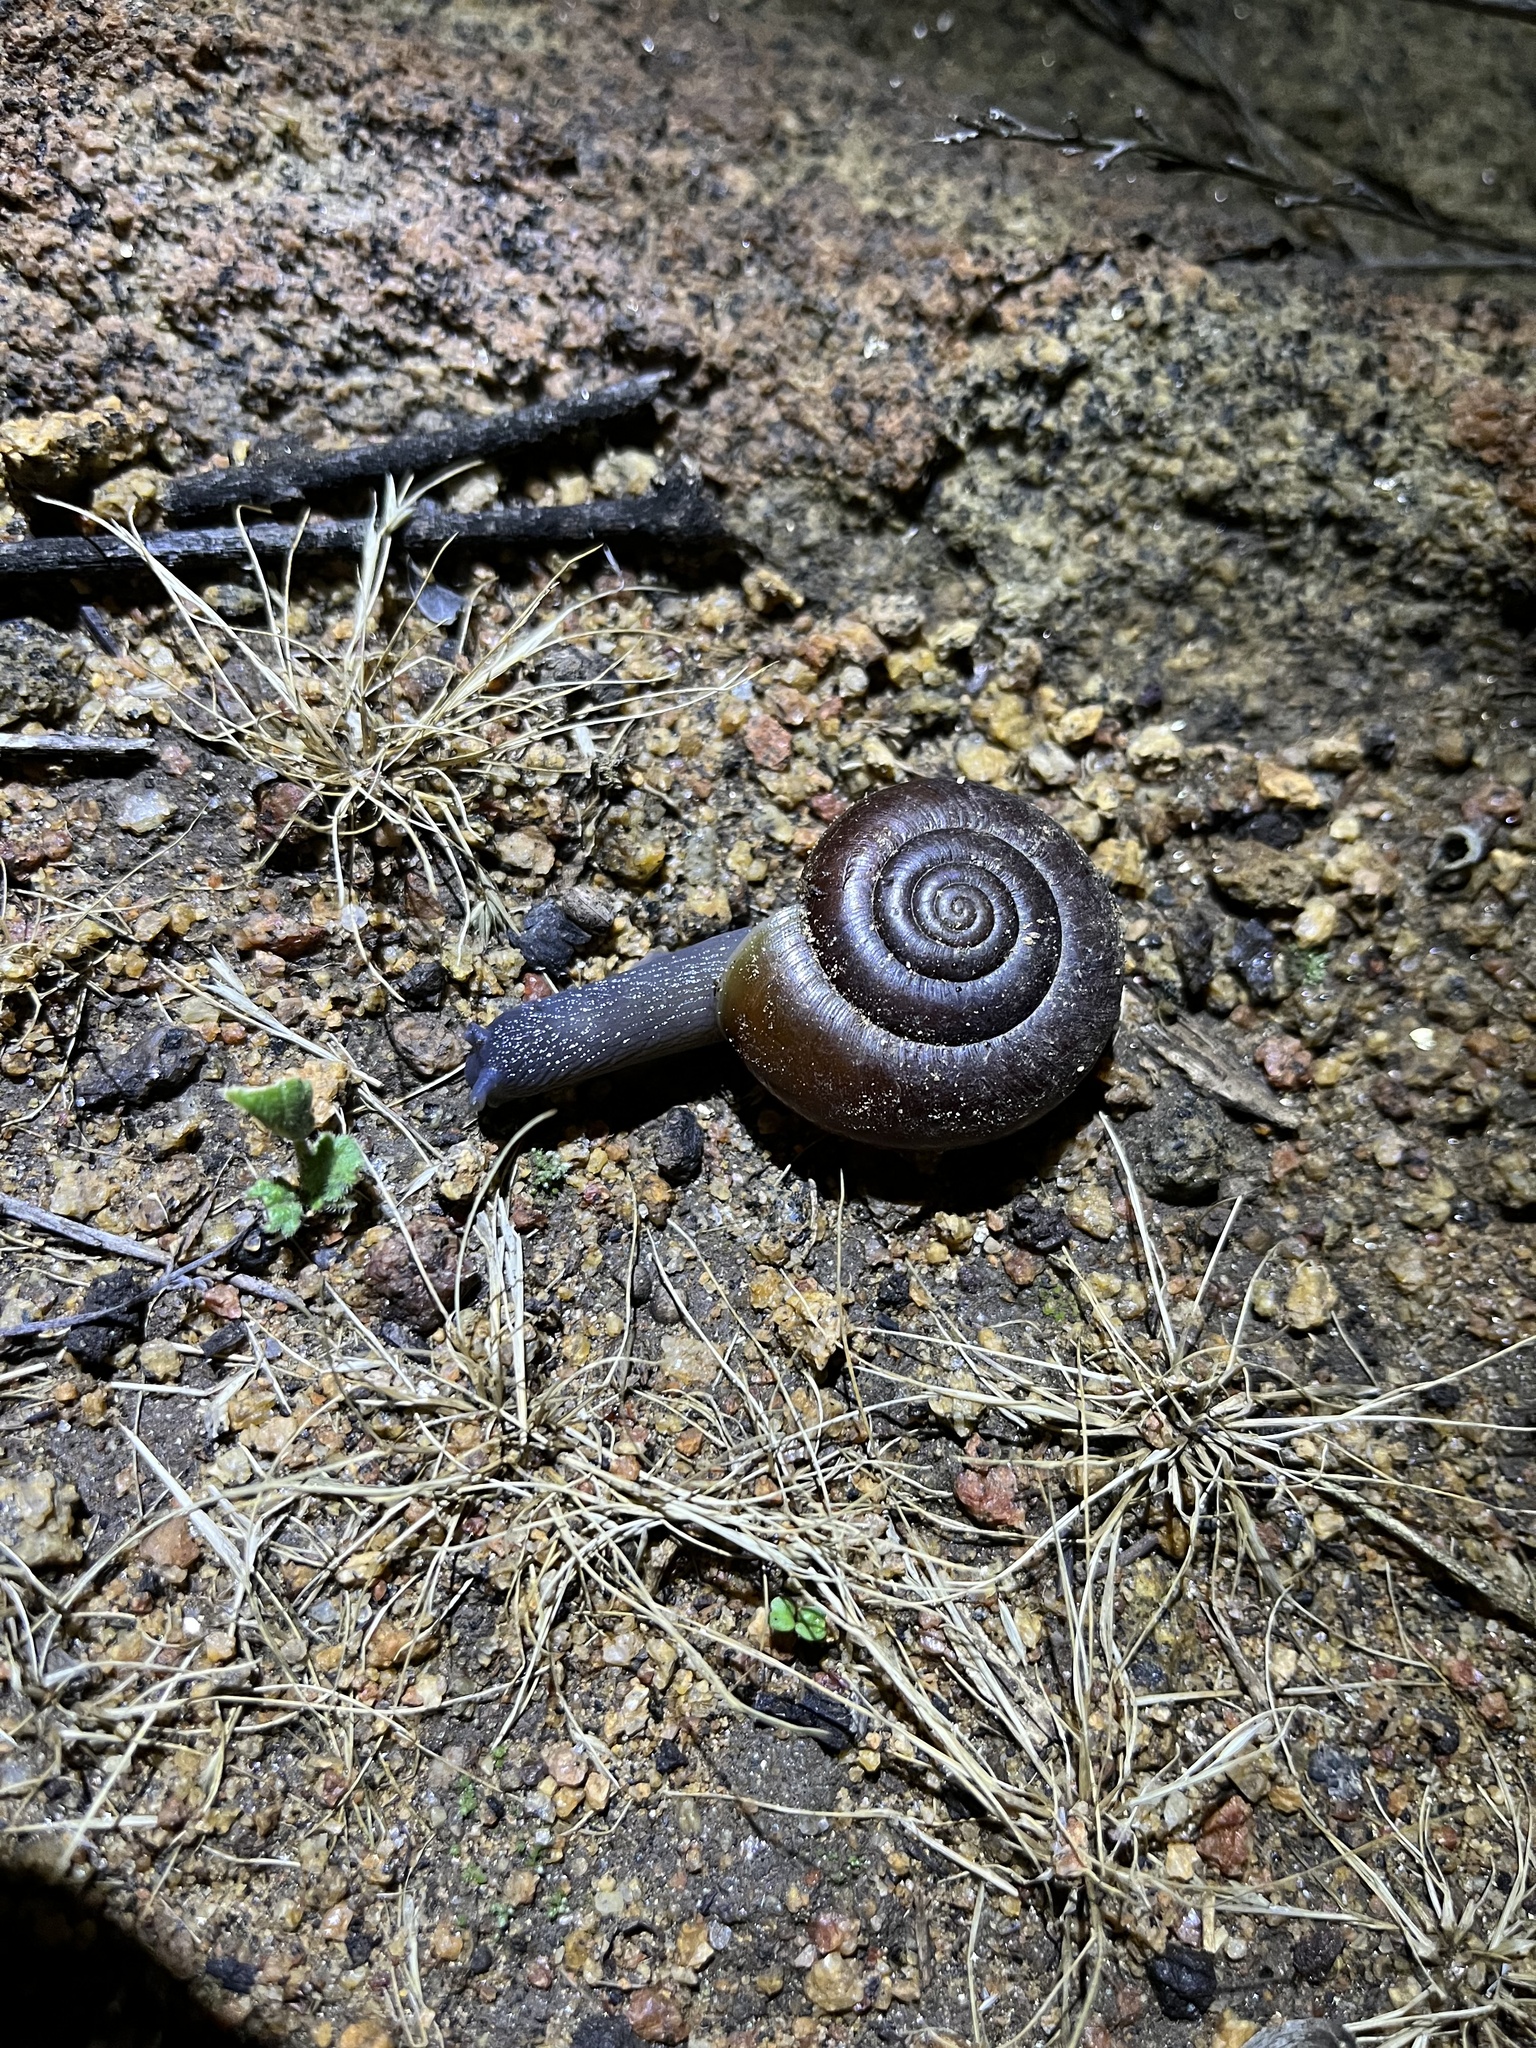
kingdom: Animalia
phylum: Mollusca
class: Gastropoda
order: Stylommatophora
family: Megomphicidae
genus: Glyptostoma
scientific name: Glyptostoma newberryanum
